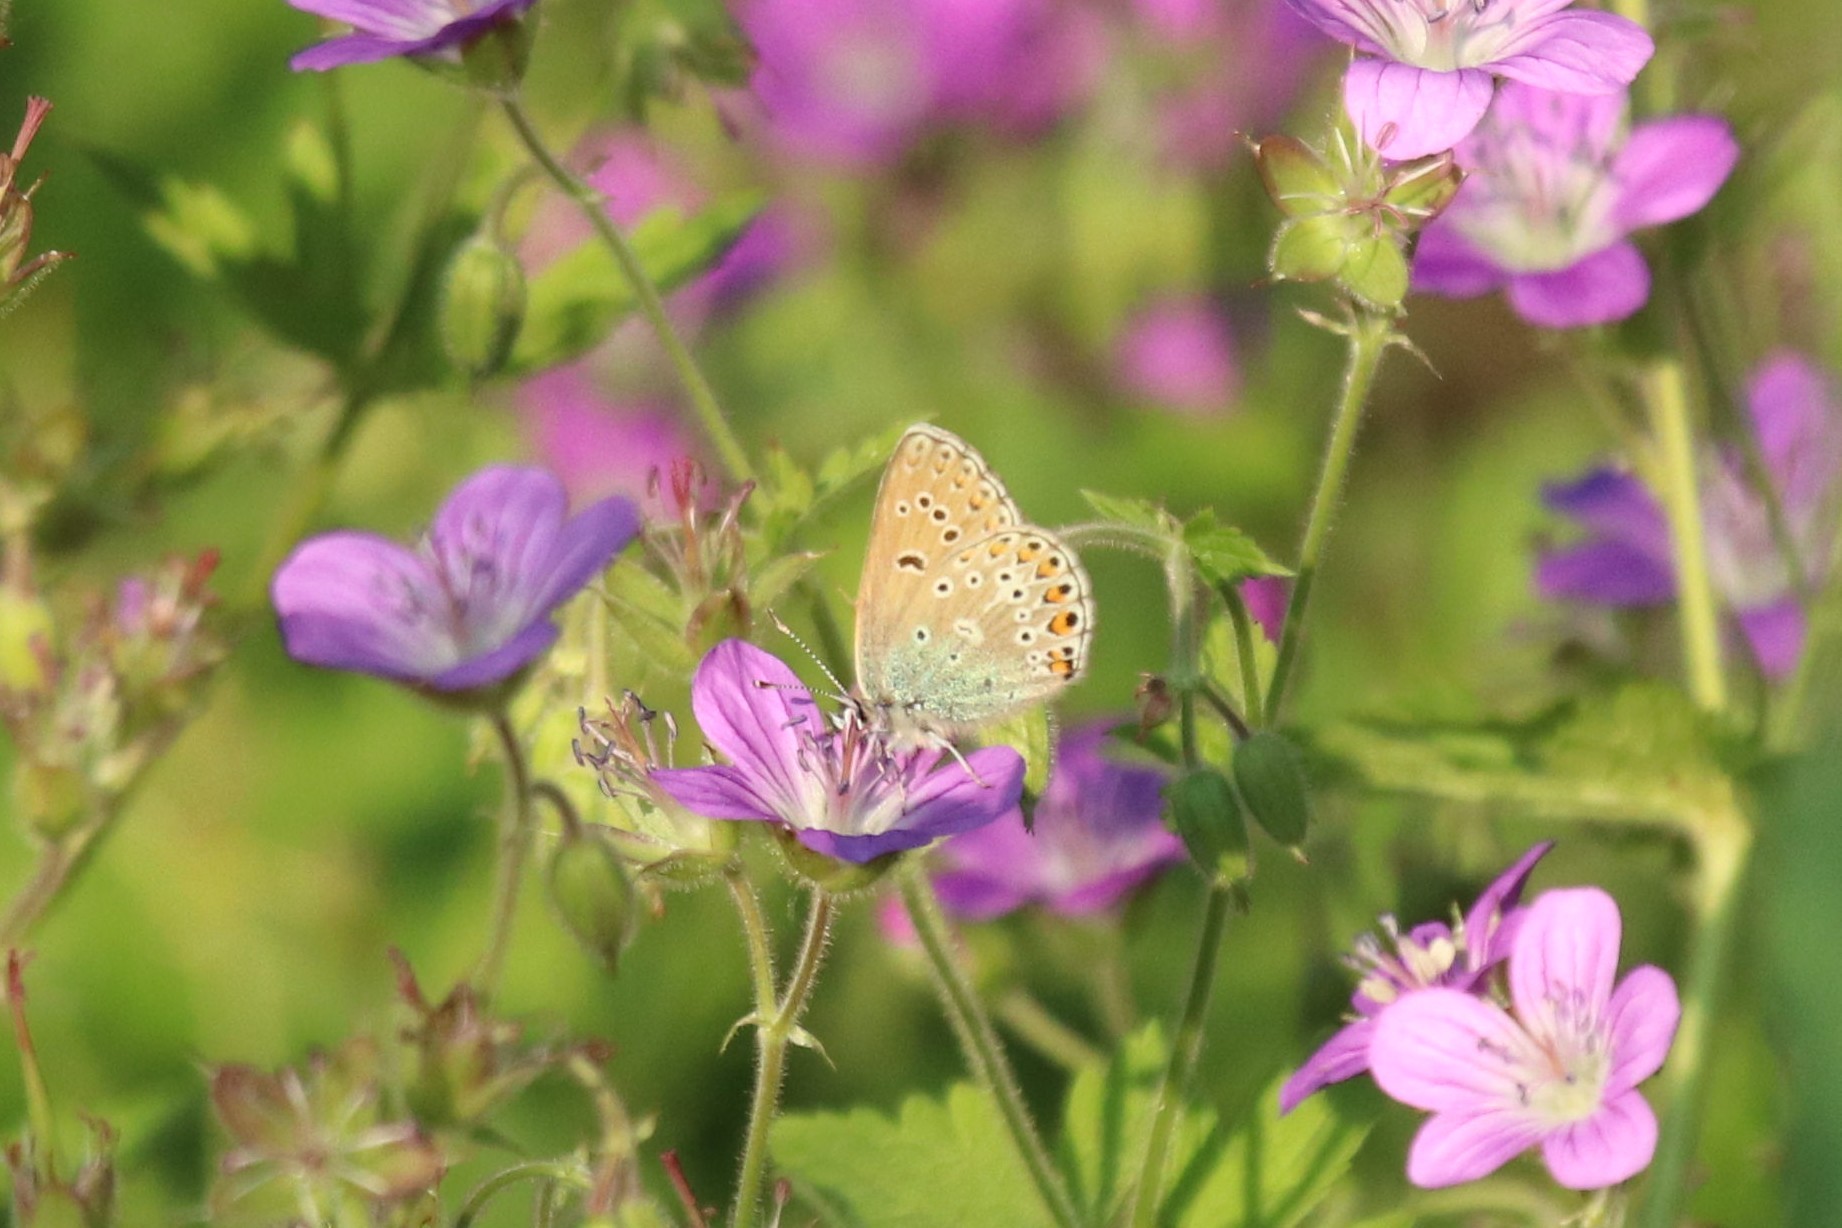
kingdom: Animalia
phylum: Arthropoda
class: Insecta
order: Lepidoptera
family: Lycaenidae
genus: Eumedonia
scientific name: Eumedonia eumedon
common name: Geranium argus
